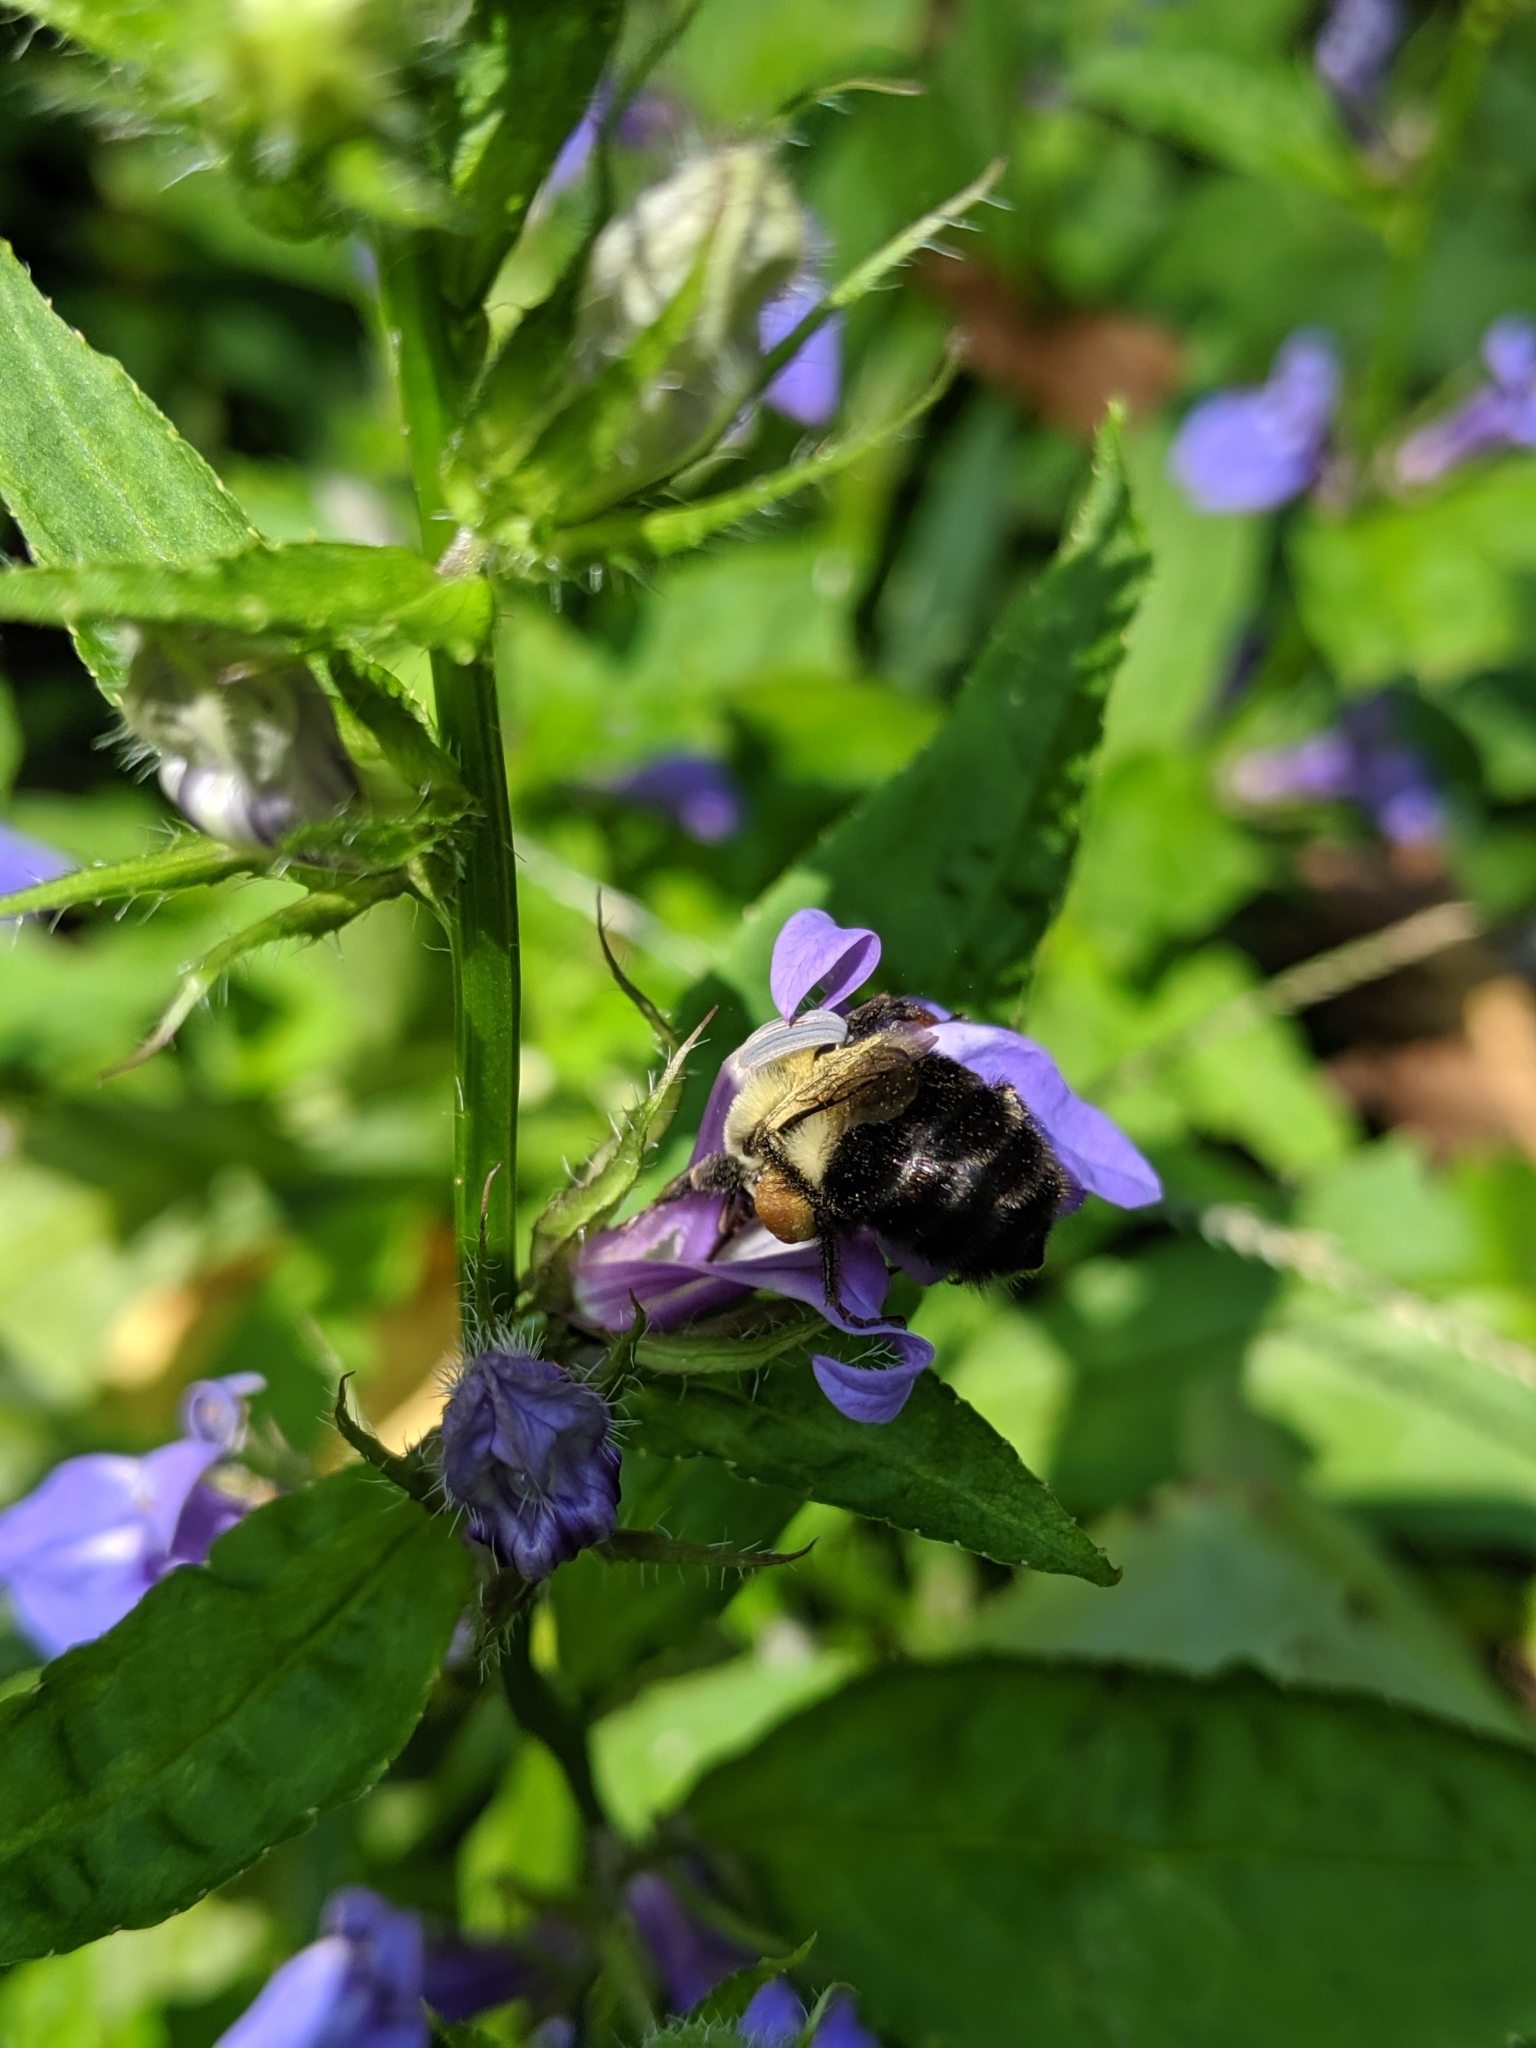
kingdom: Animalia
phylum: Arthropoda
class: Insecta
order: Hymenoptera
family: Apidae
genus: Bombus
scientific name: Bombus impatiens
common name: Common eastern bumble bee
